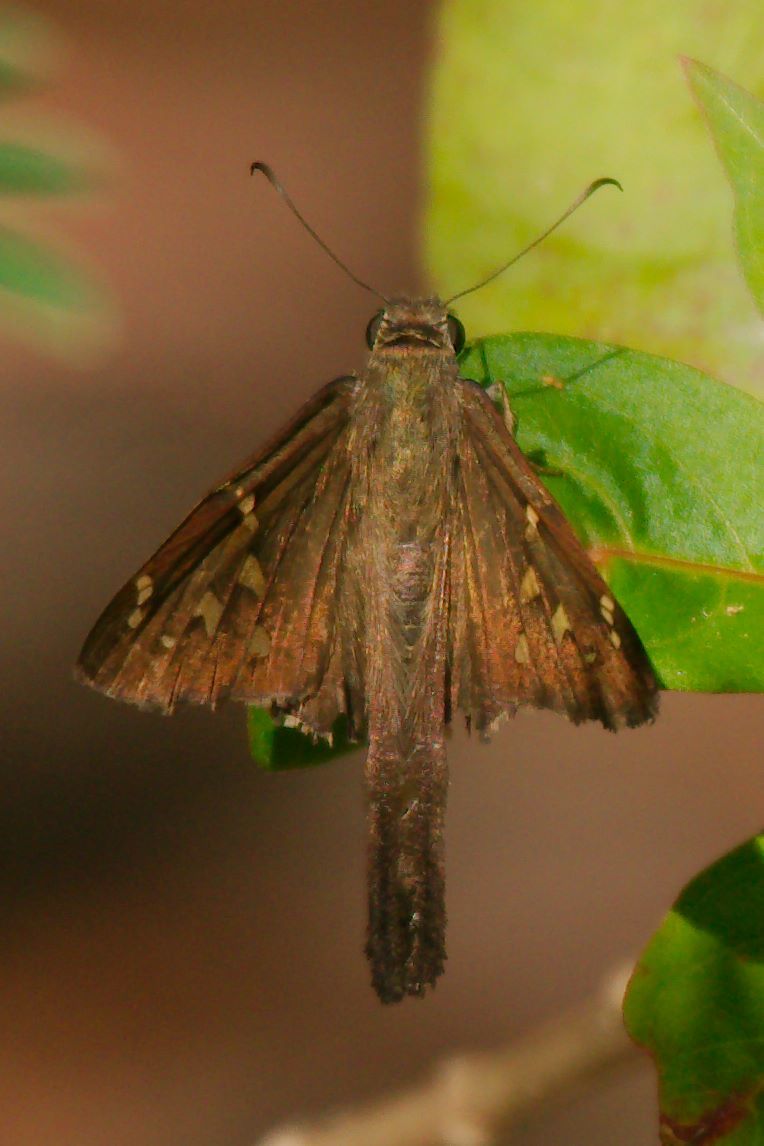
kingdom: Animalia
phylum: Arthropoda
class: Insecta
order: Lepidoptera
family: Hesperiidae
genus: Thorybes
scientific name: Thorybes
